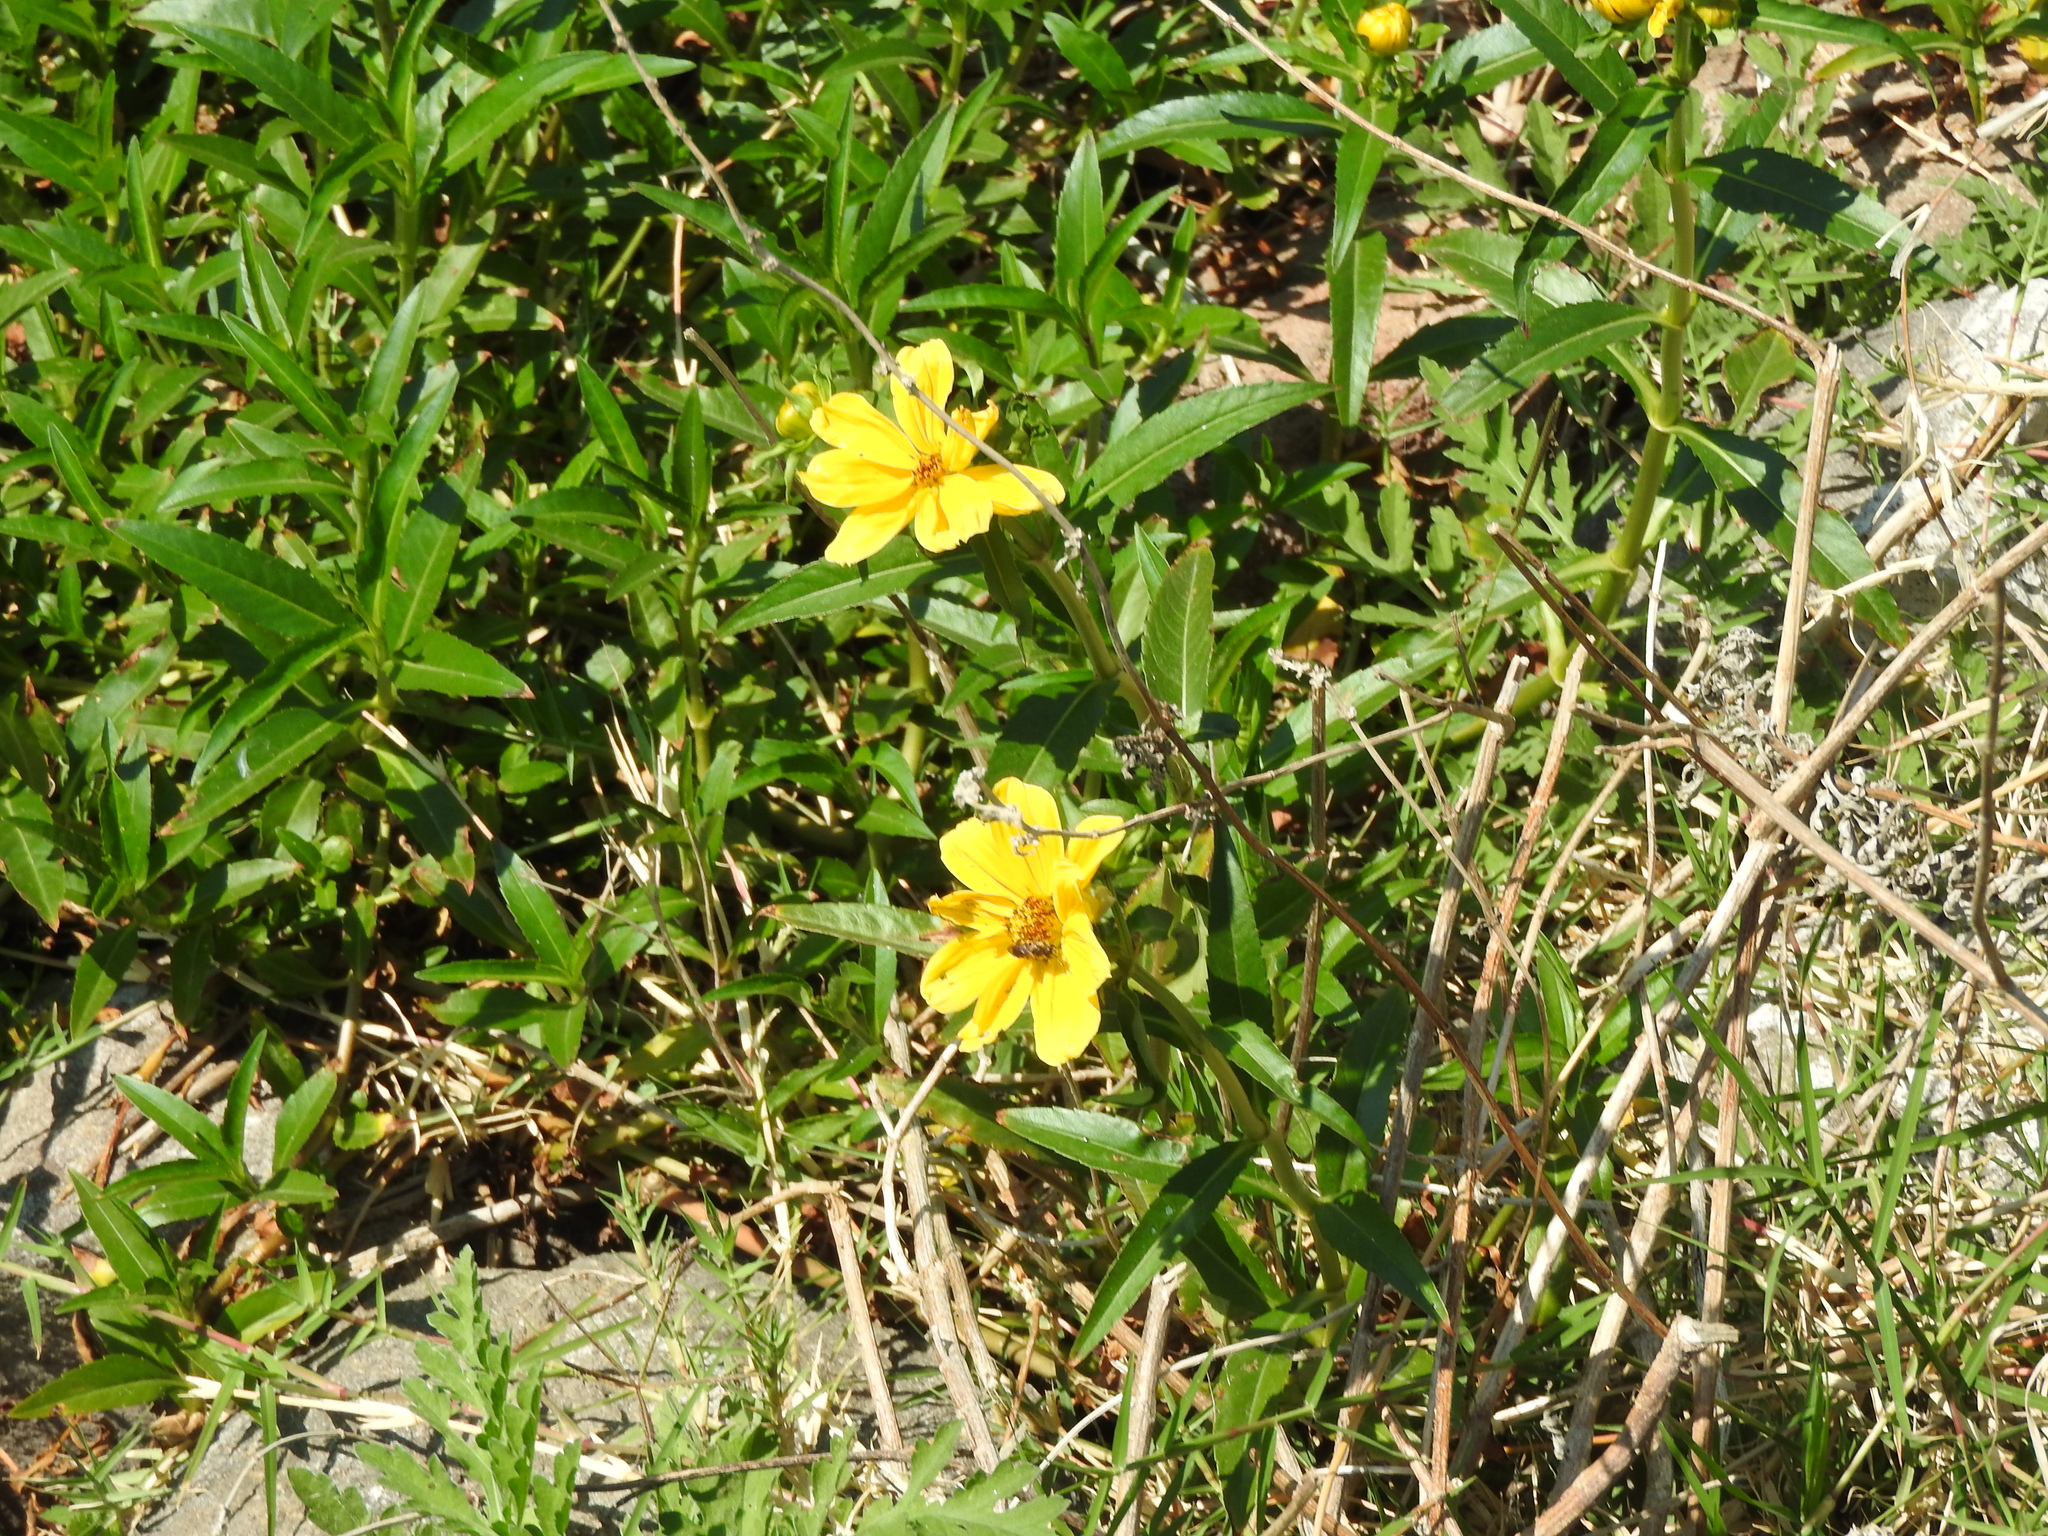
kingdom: Plantae
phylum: Tracheophyta
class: Magnoliopsida
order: Asterales
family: Asteraceae
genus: Bidens
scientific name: Bidens laevis
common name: Larger bur-marigold
